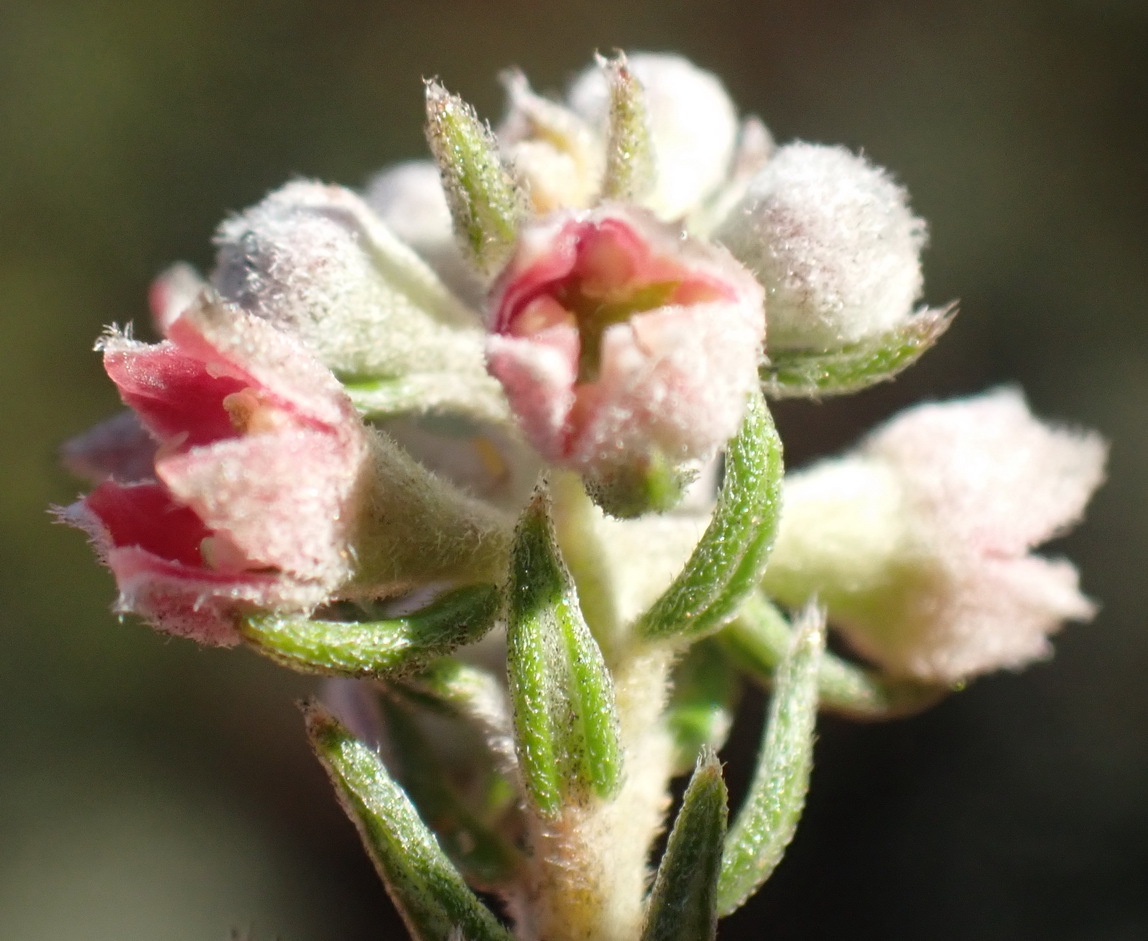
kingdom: Plantae
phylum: Tracheophyta
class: Magnoliopsida
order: Rosales
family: Rhamnaceae
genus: Phylica
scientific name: Phylica purpurea
